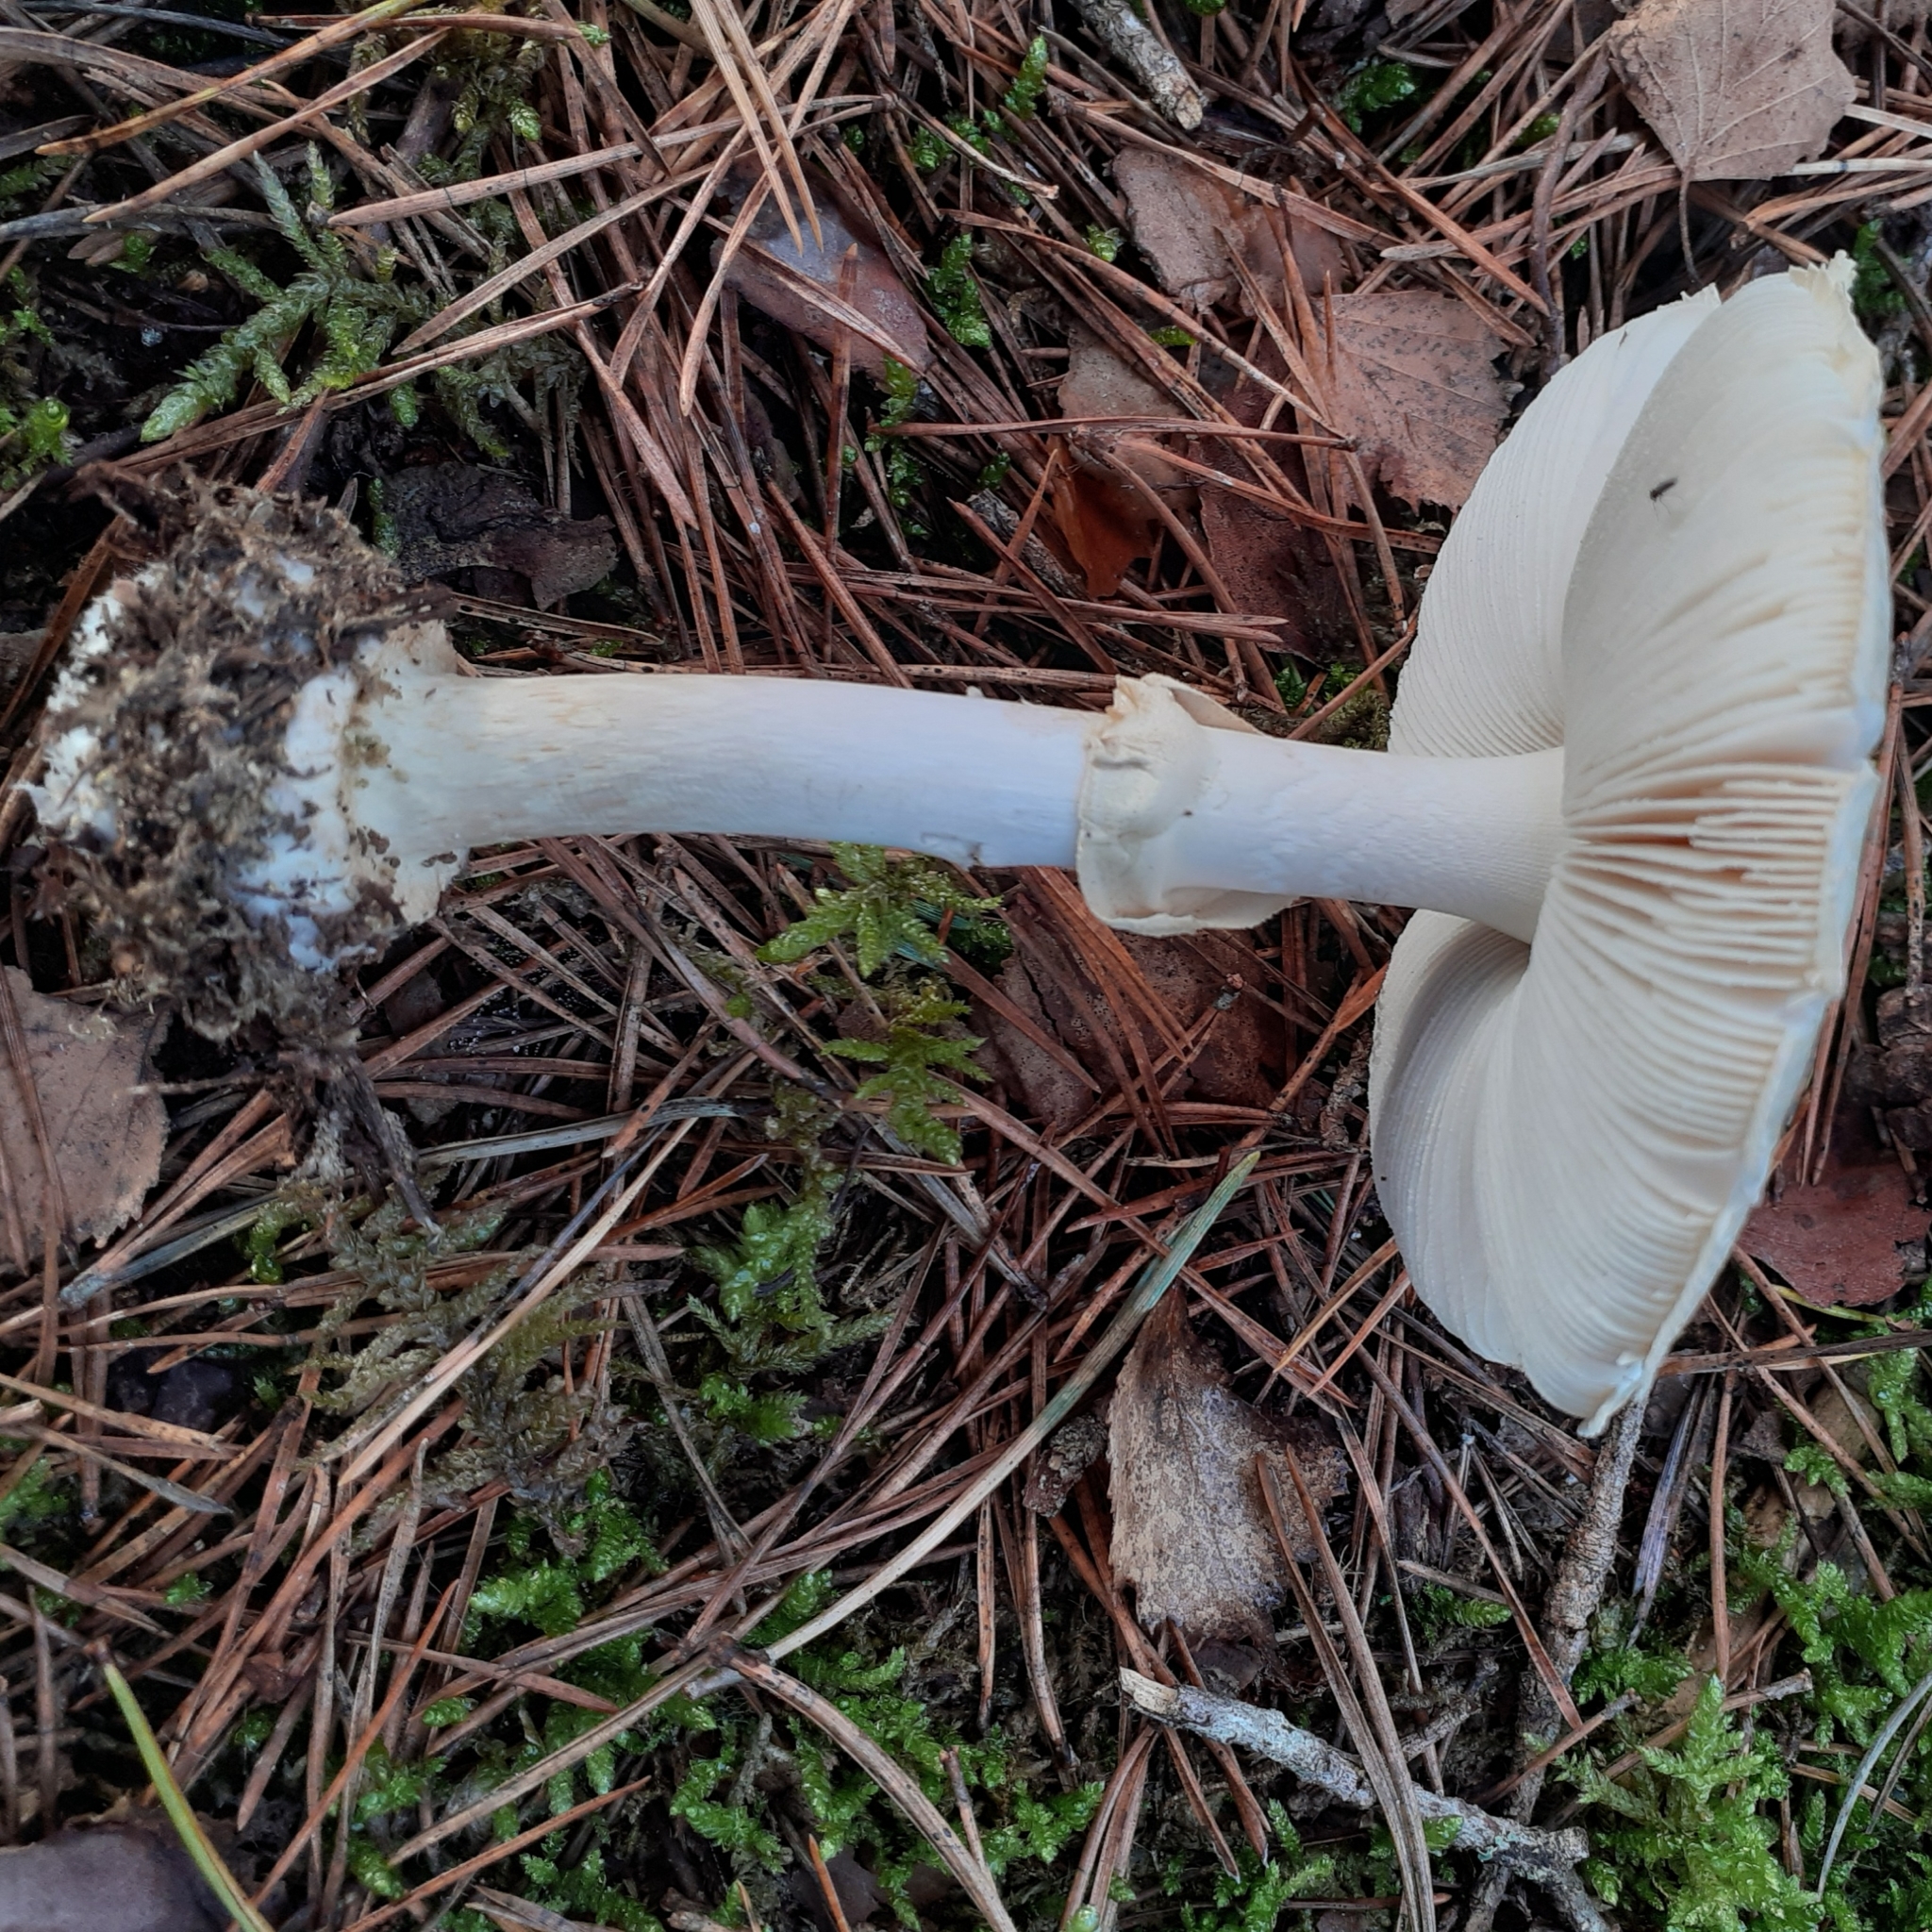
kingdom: Fungi
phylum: Basidiomycota
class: Agaricomycetes
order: Agaricales
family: Amanitaceae
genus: Amanita
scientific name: Amanita citrina
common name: False death-cap
